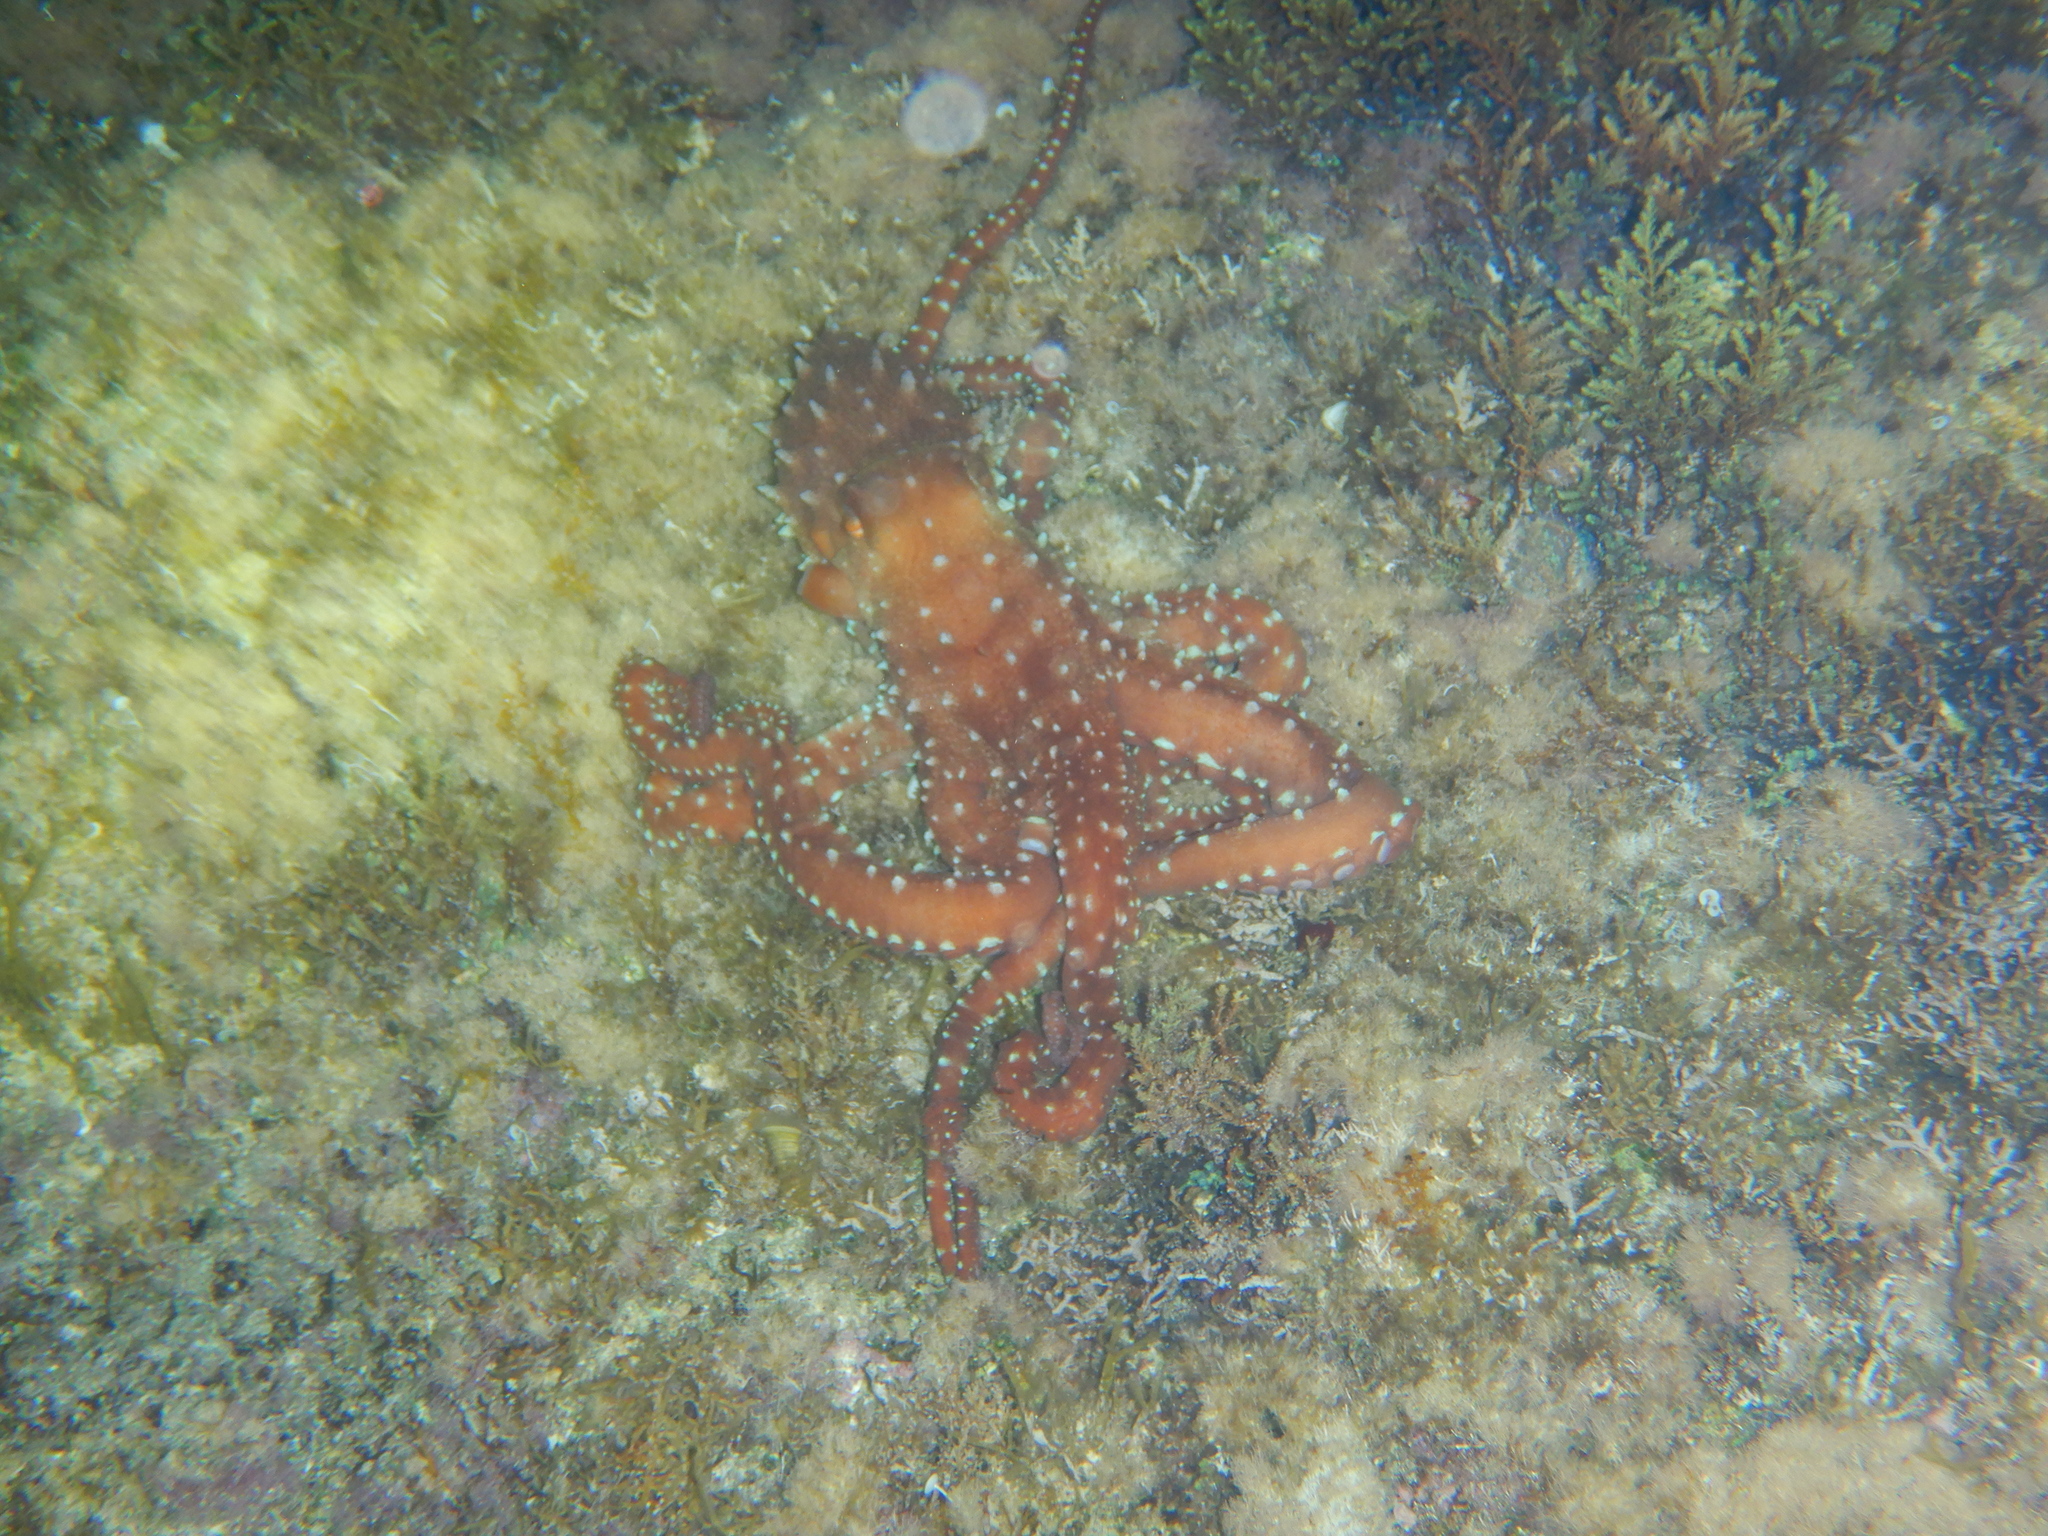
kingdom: Animalia
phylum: Mollusca
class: Cephalopoda
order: Octopoda
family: Octopodidae
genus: Callistoctopus
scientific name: Callistoctopus macropus
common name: Atlantic white-spotted octopus
